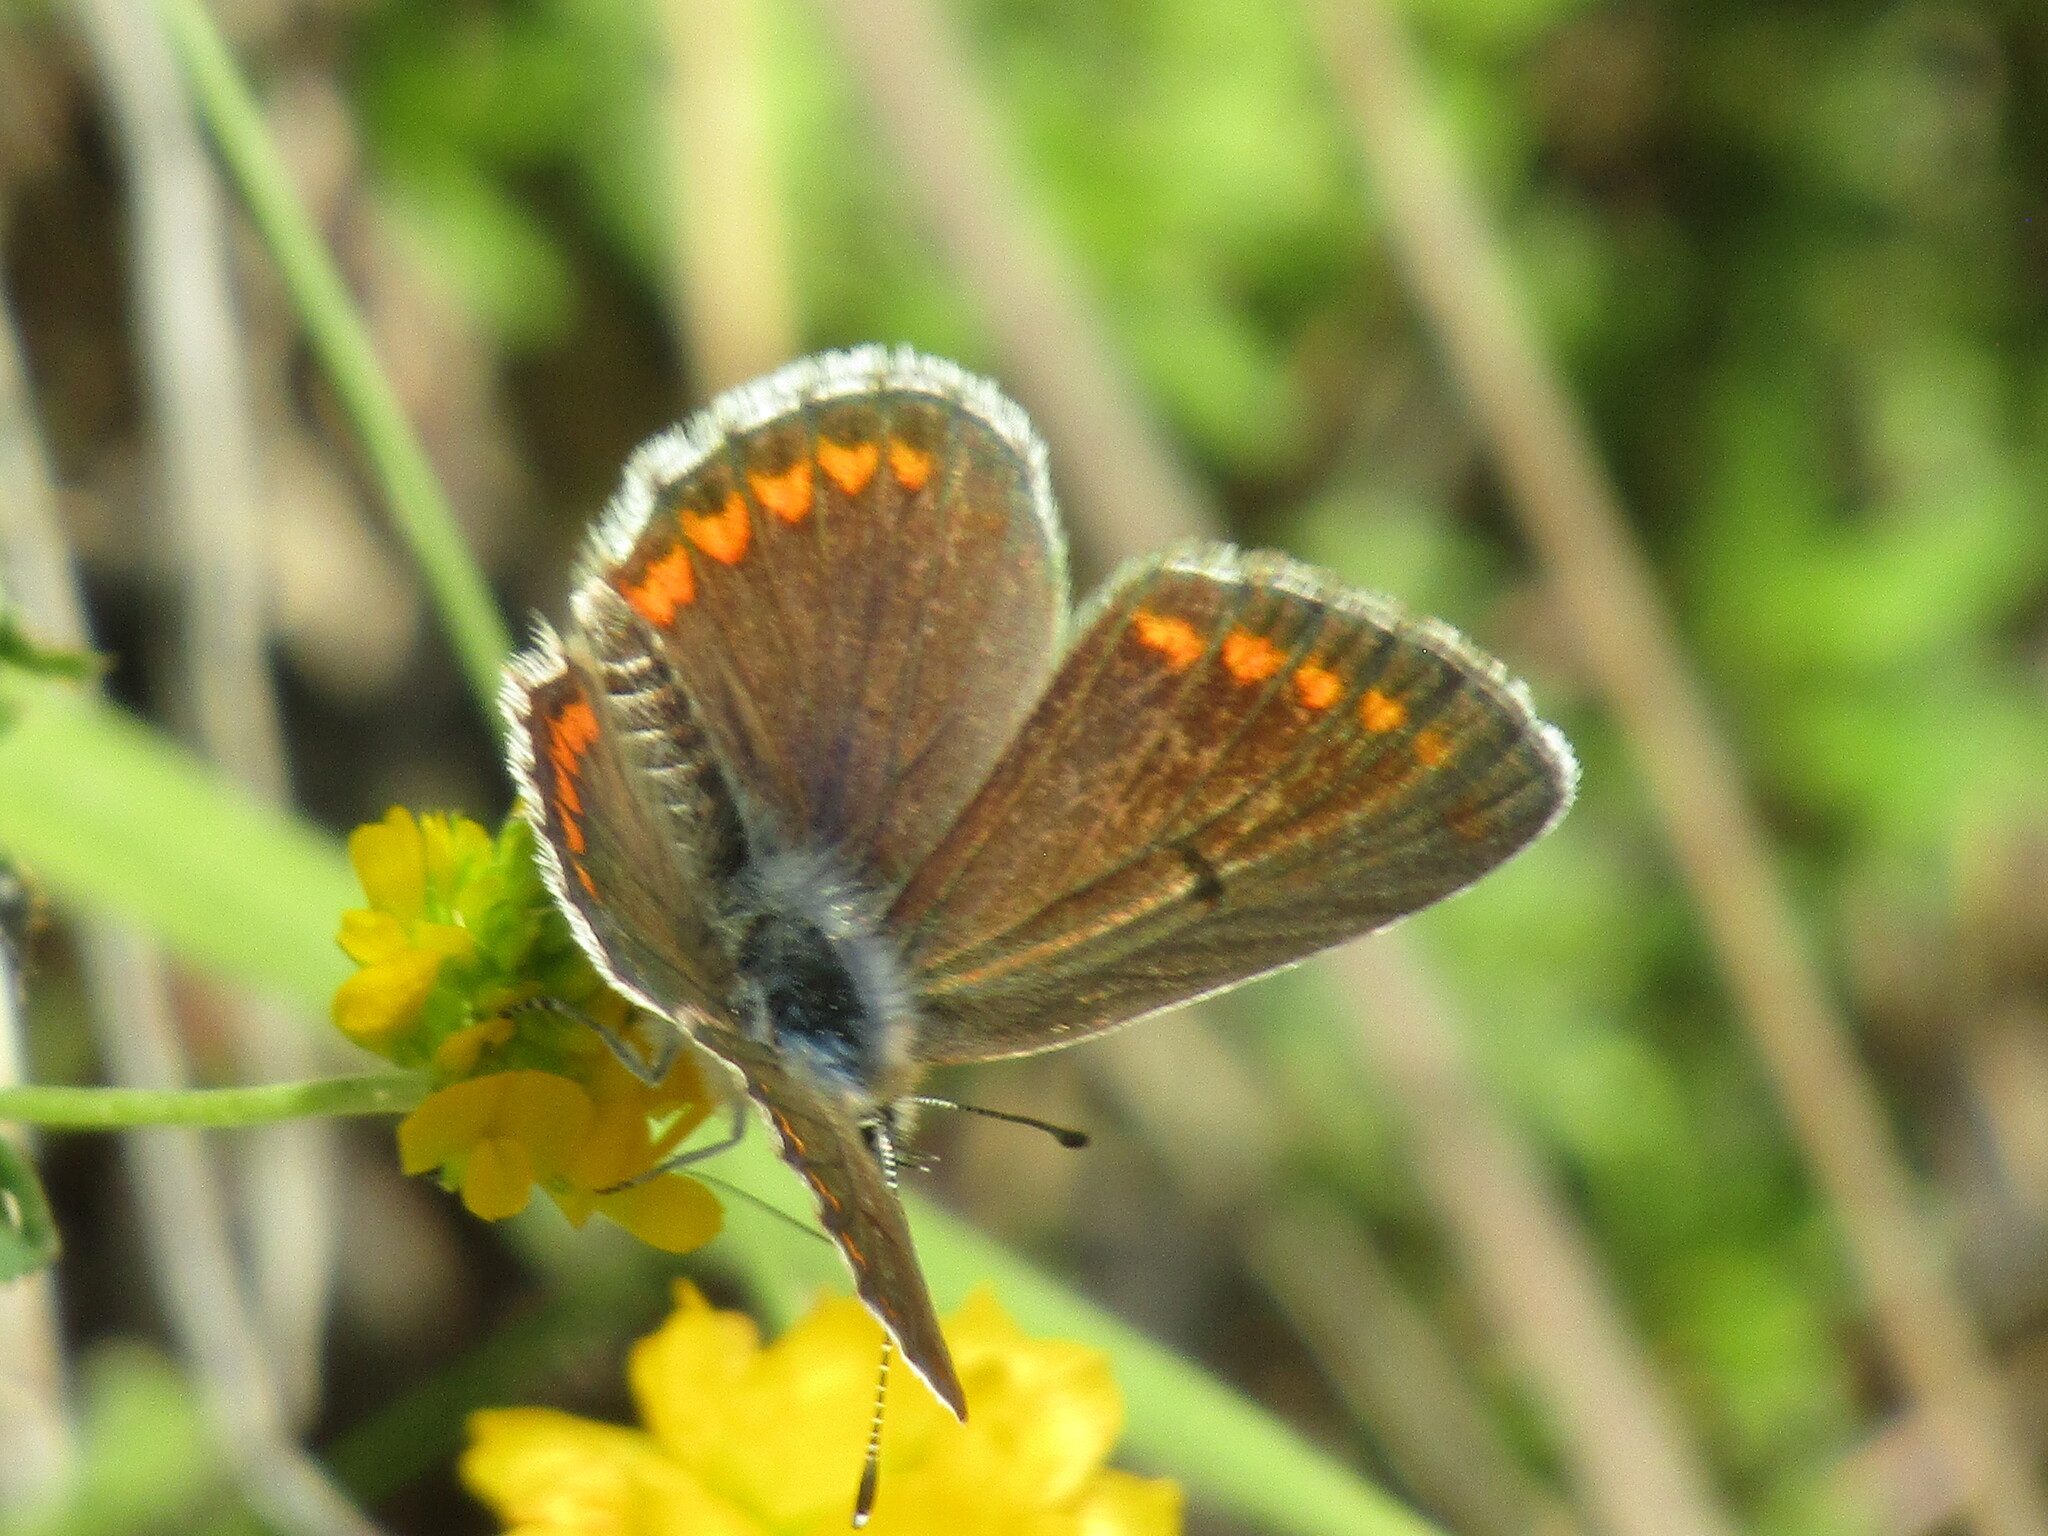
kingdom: Animalia
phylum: Arthropoda
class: Insecta
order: Lepidoptera
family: Lycaenidae
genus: Aricia
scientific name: Aricia agestis
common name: Brown argus
